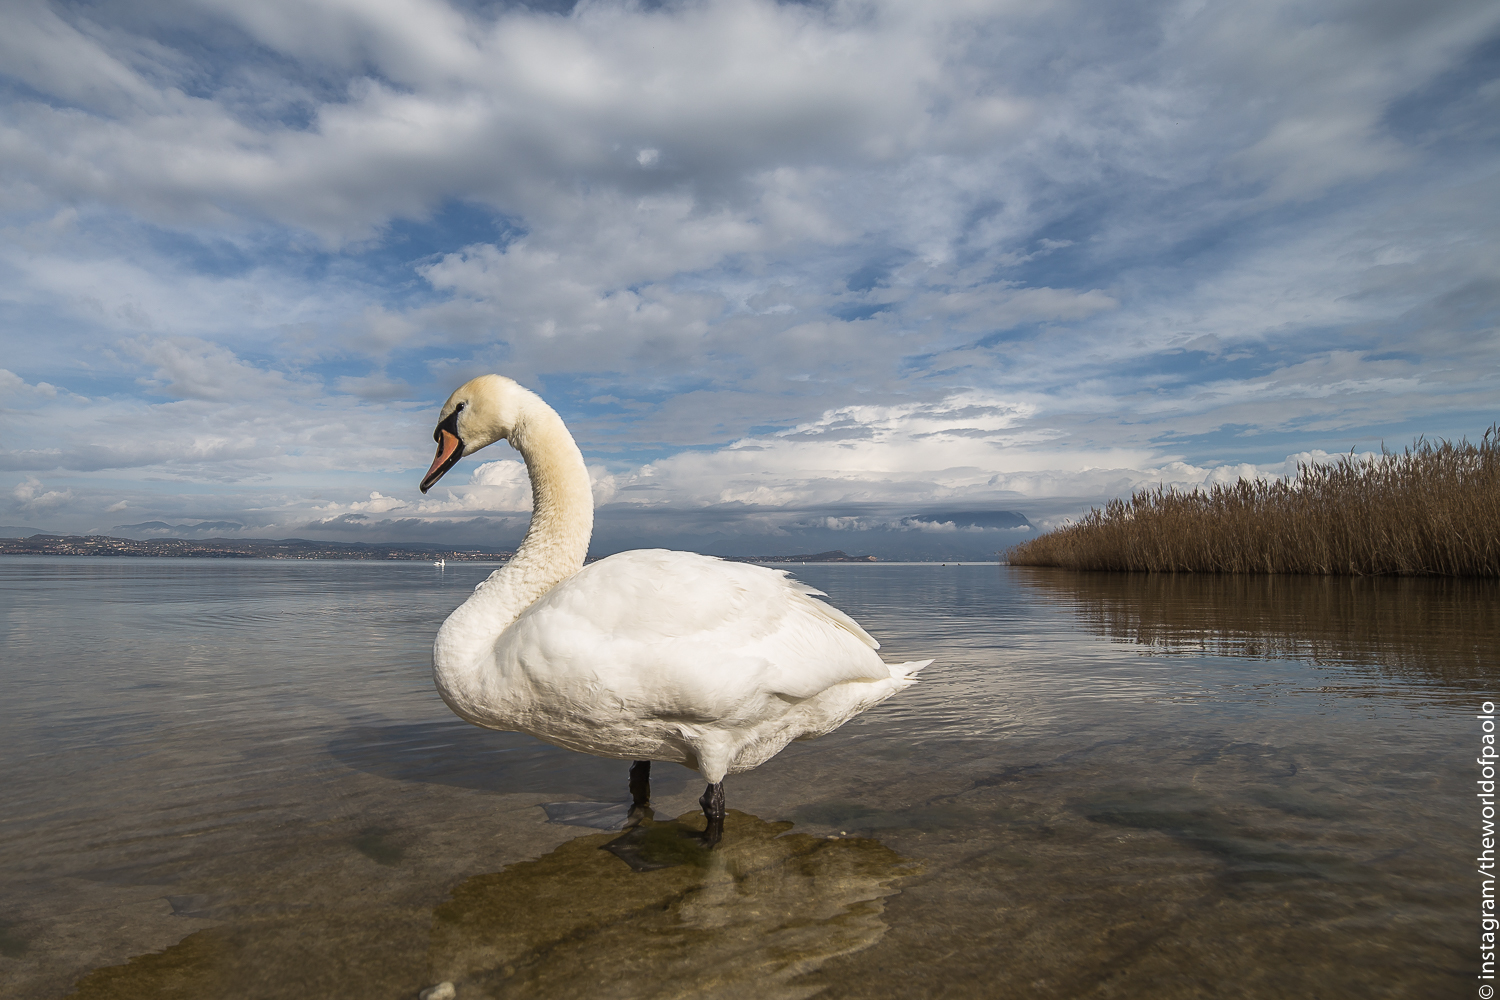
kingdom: Animalia
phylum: Chordata
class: Aves
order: Anseriformes
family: Anatidae
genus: Cygnus
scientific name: Cygnus olor
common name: Mute swan
